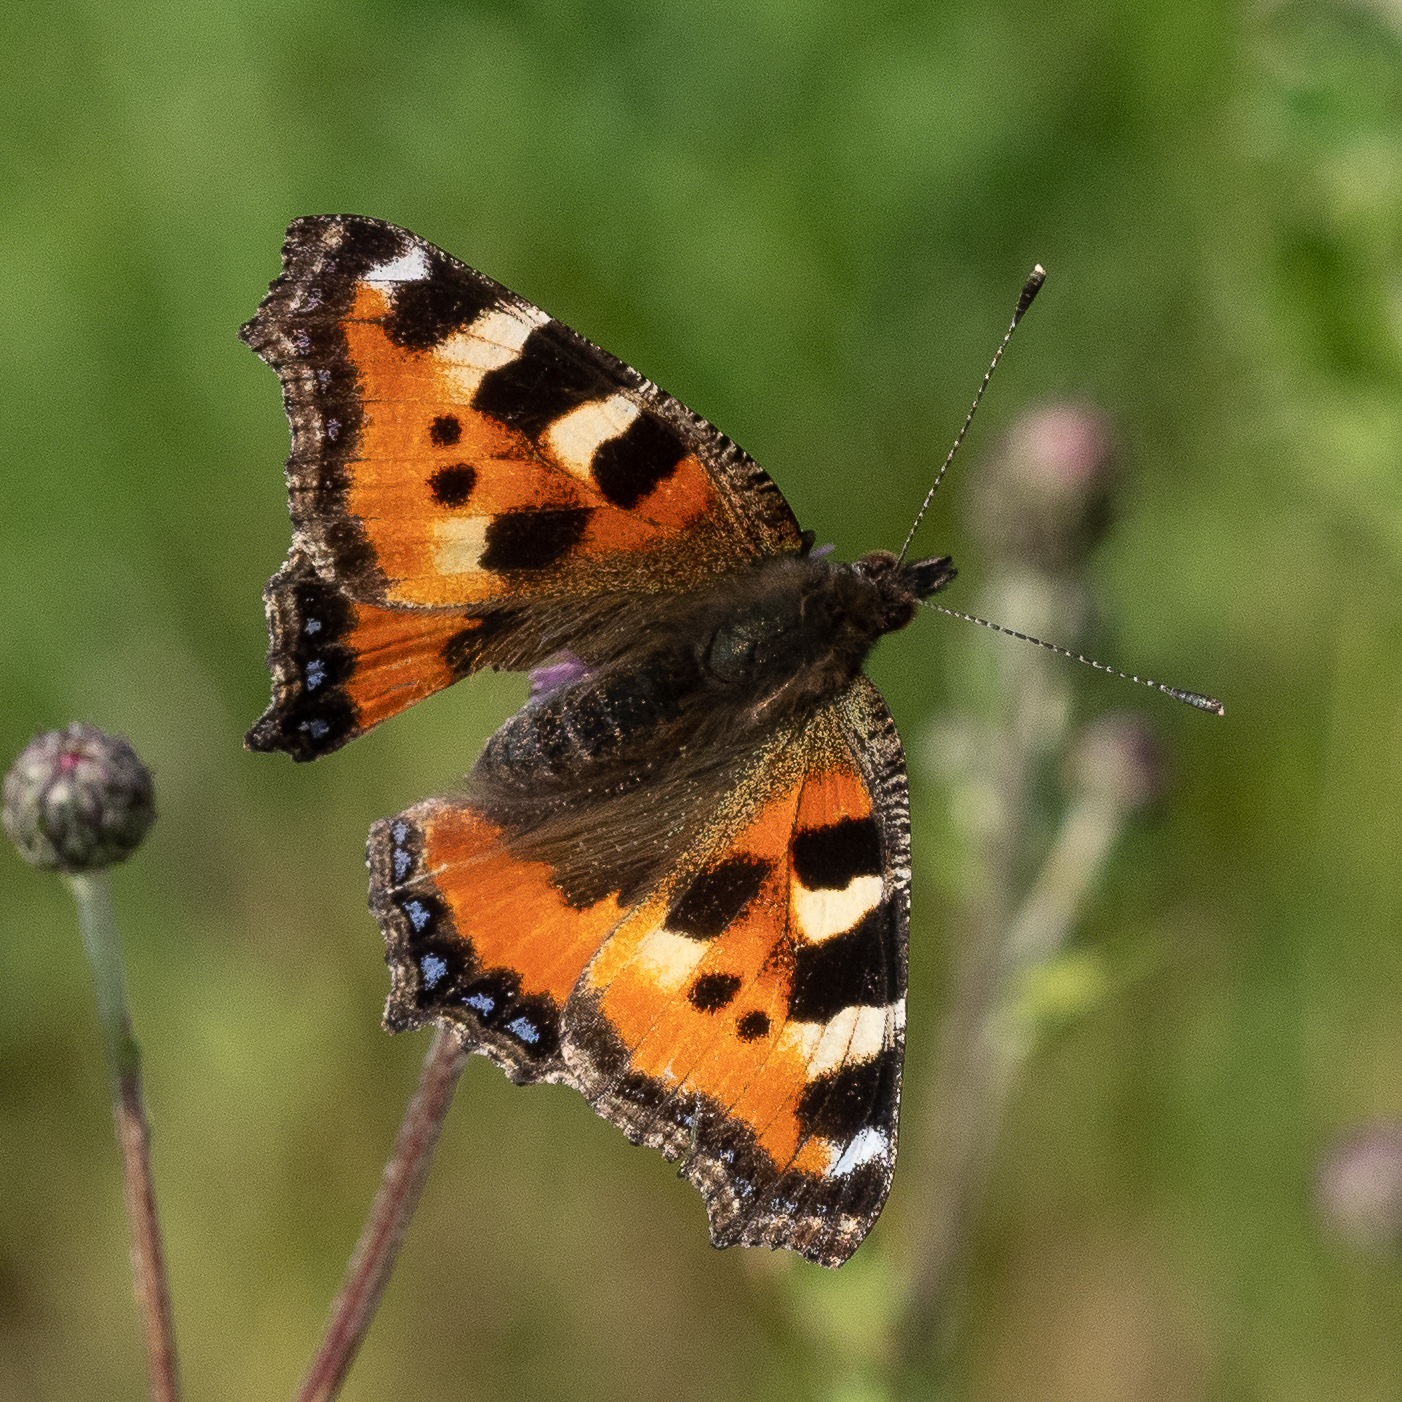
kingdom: Animalia
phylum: Arthropoda
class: Insecta
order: Lepidoptera
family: Nymphalidae
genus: Aglais
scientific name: Aglais urticae
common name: Small tortoiseshell
